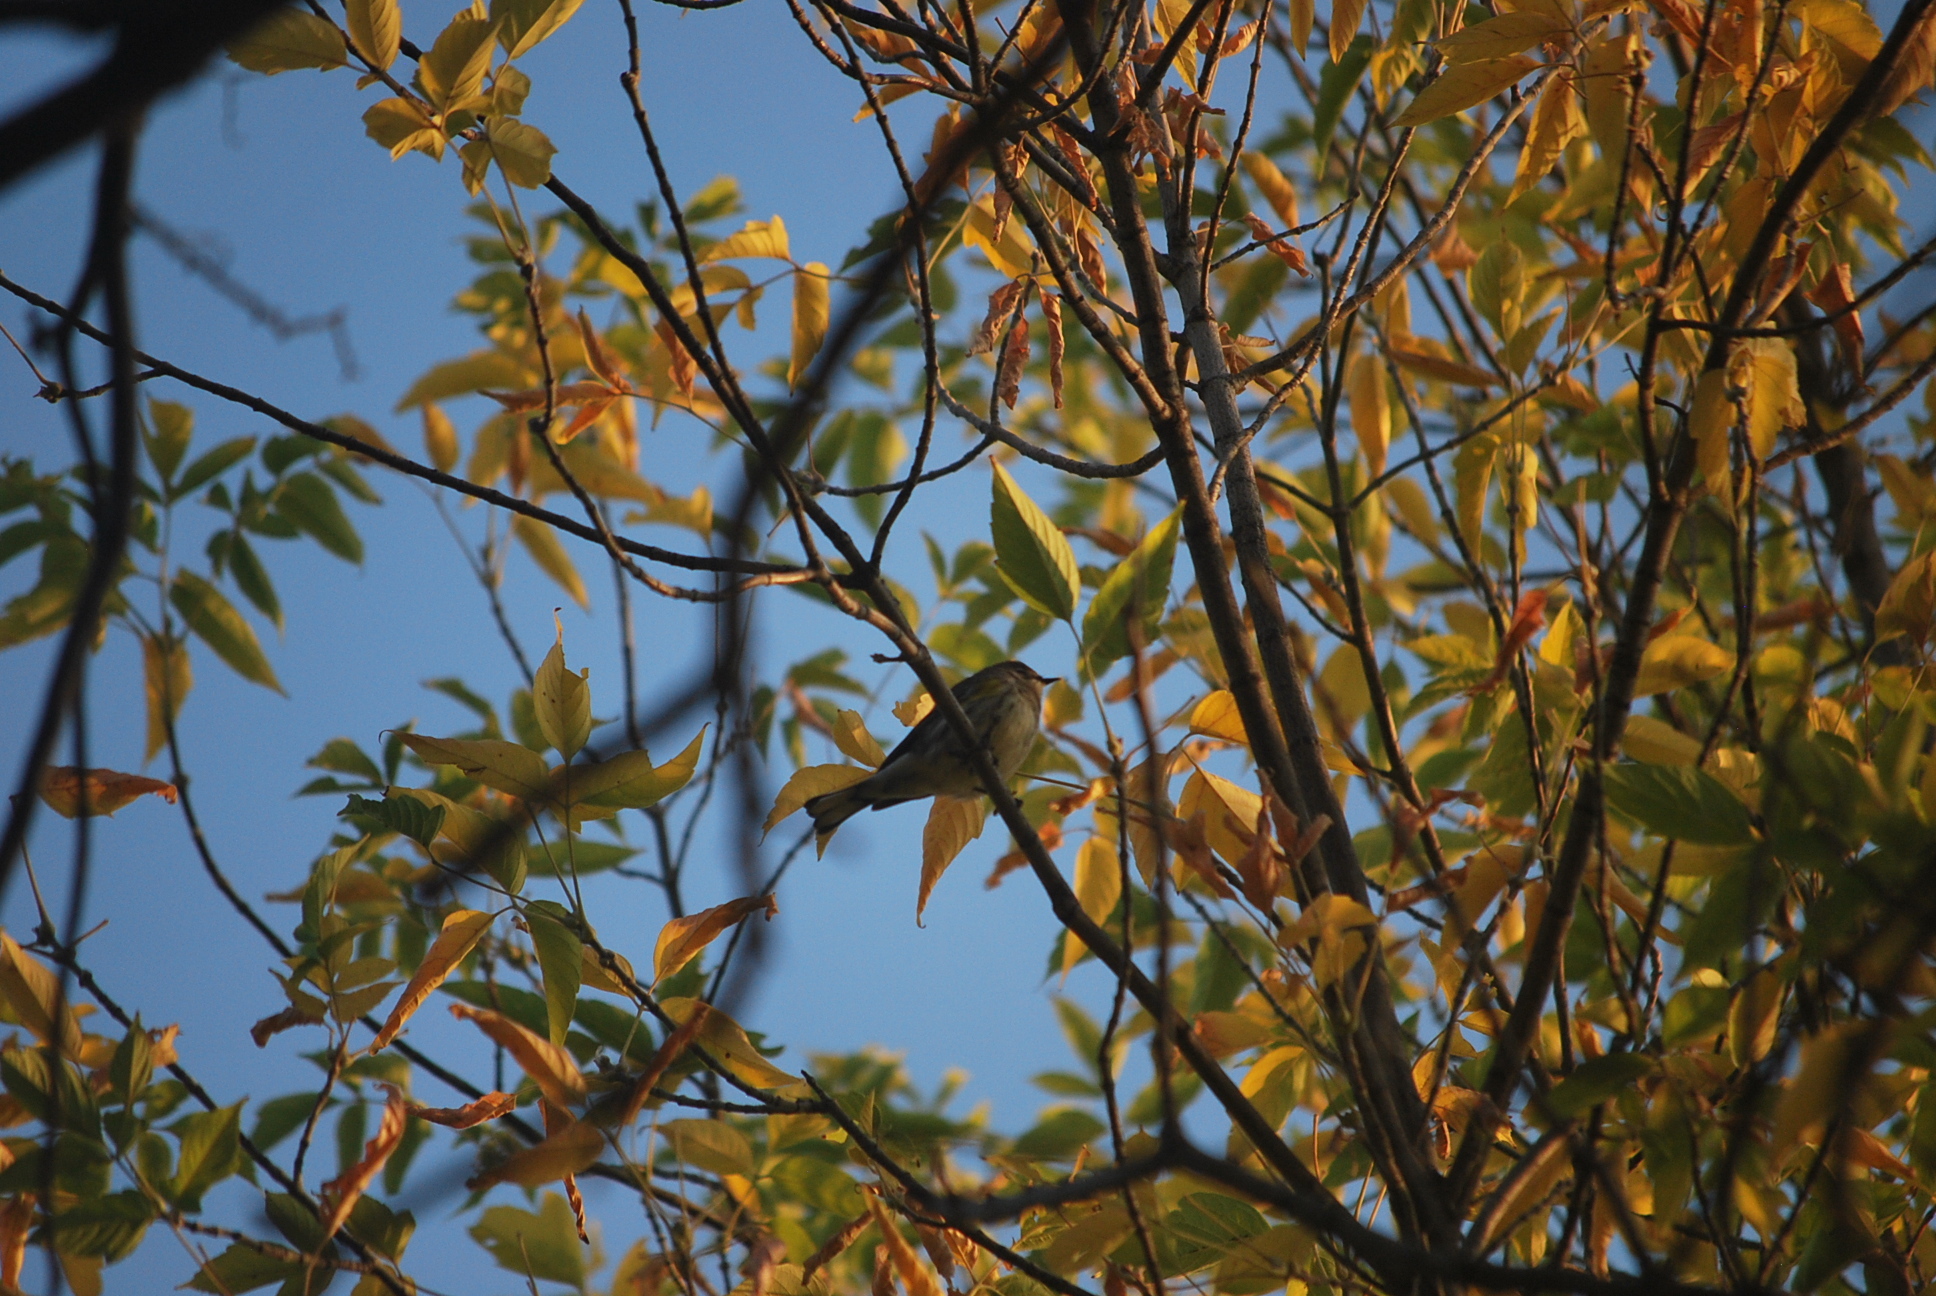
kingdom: Animalia
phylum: Chordata
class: Aves
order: Passeriformes
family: Parulidae
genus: Setophaga
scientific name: Setophaga coronata
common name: Myrtle warbler
